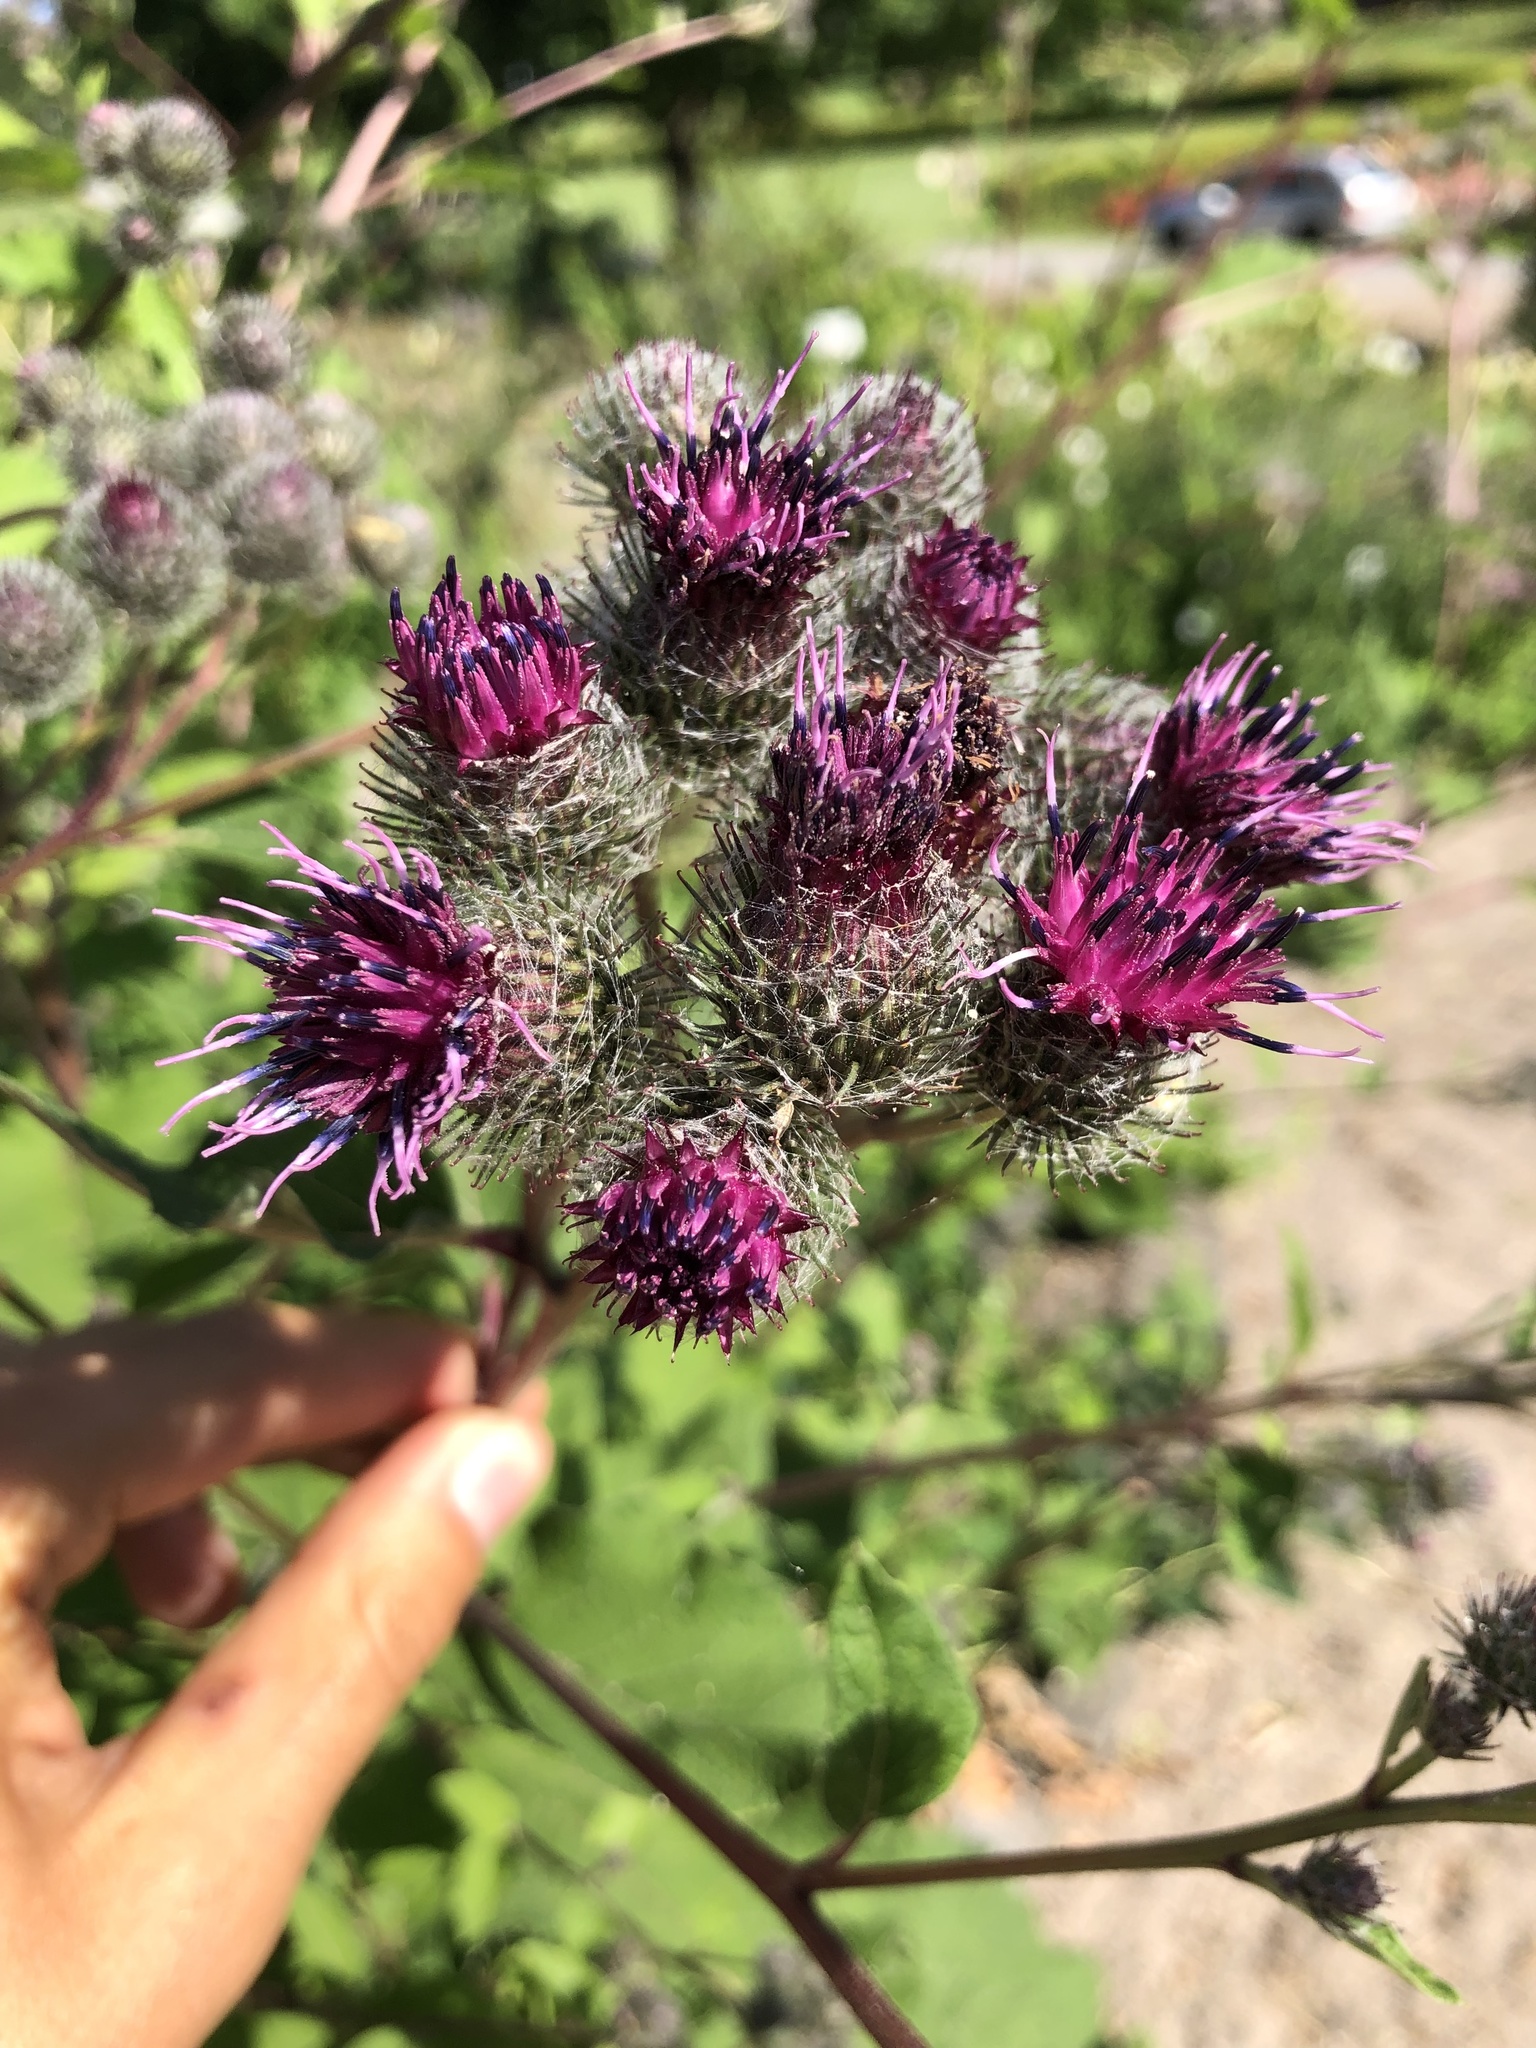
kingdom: Plantae
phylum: Tracheophyta
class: Magnoliopsida
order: Asterales
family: Asteraceae
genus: Arctium
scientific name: Arctium tomentosum
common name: Woolly burdock
